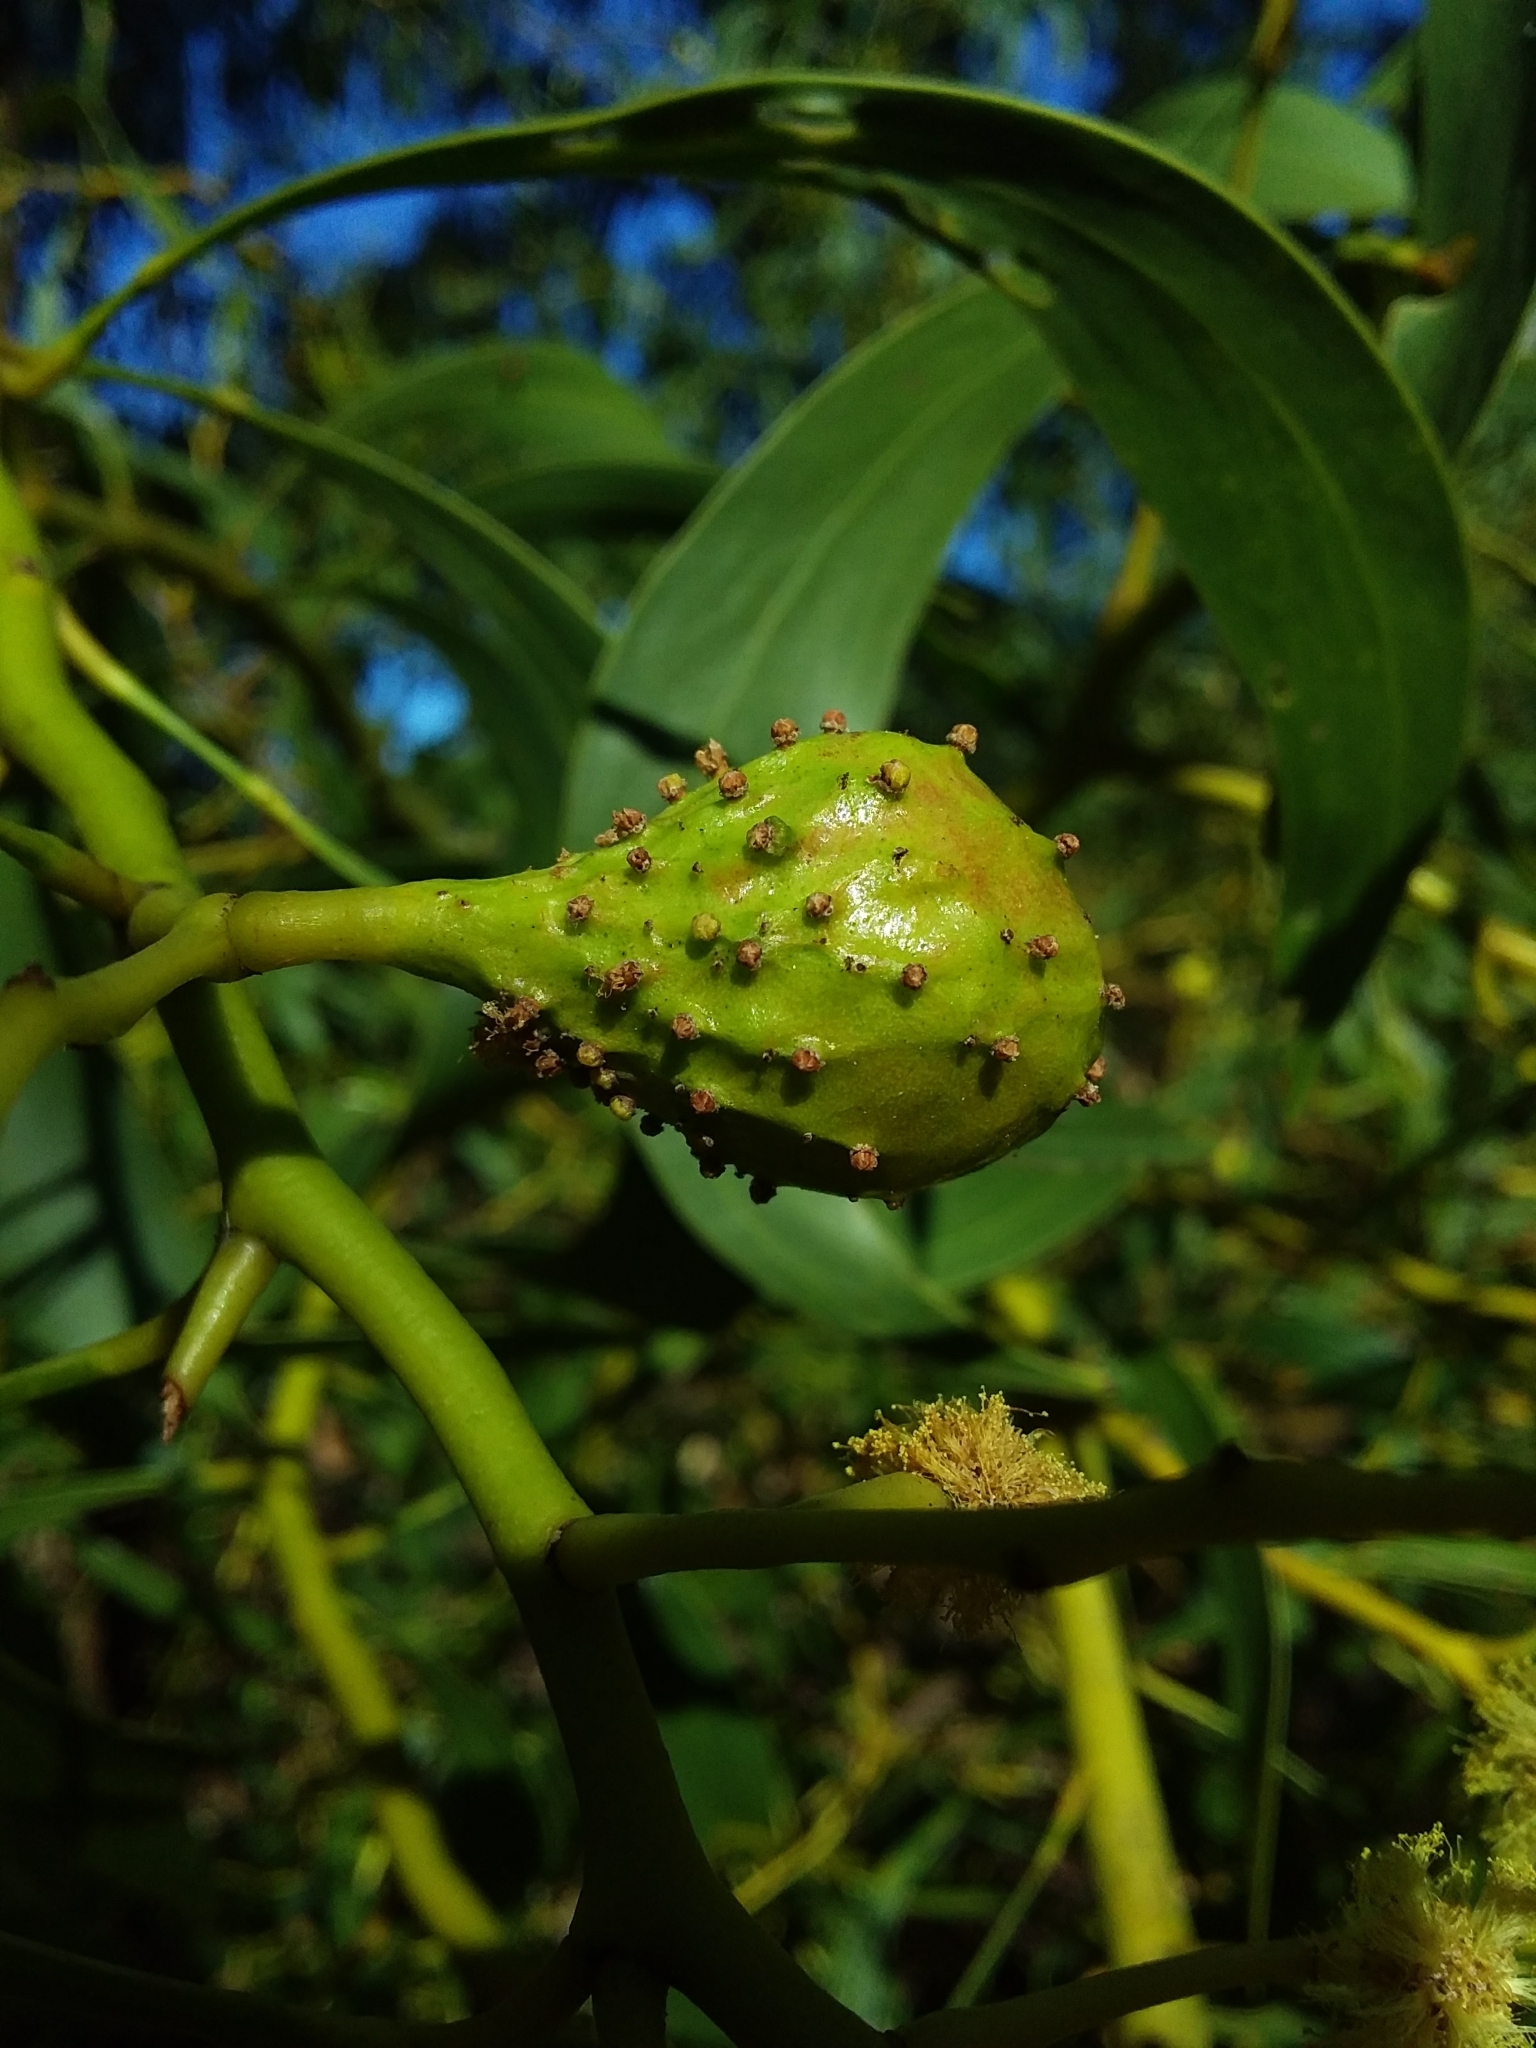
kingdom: Animalia
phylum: Arthropoda
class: Insecta
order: Hymenoptera
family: Pteromalidae
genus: Trichilogaster
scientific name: Trichilogaster signiventris
